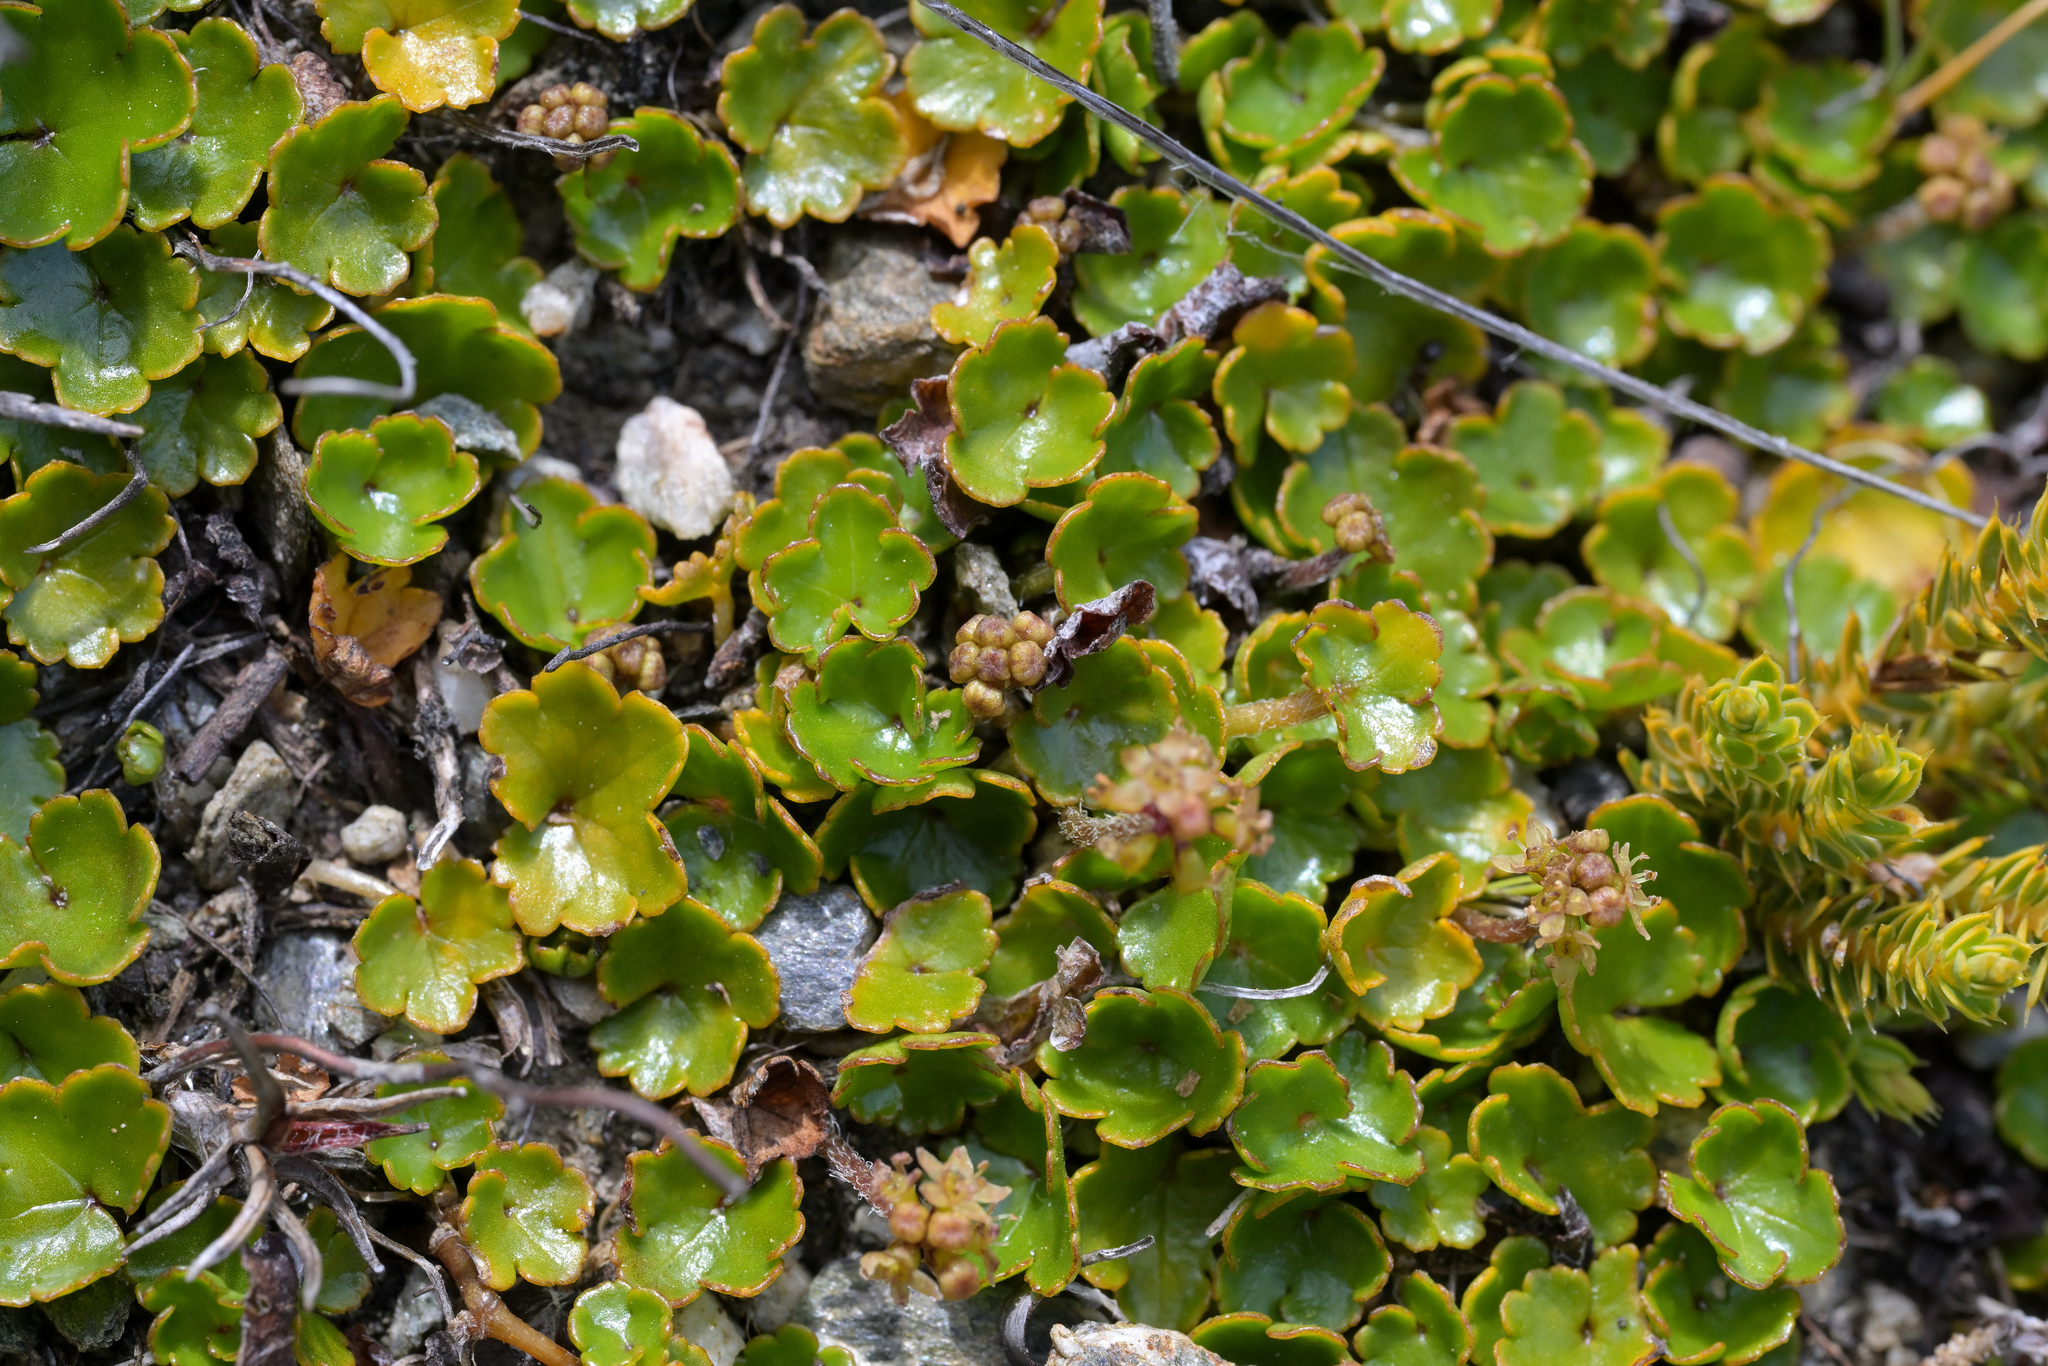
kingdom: Plantae
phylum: Tracheophyta
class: Magnoliopsida
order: Apiales
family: Apiaceae
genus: Azorella
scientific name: Azorella haastii
